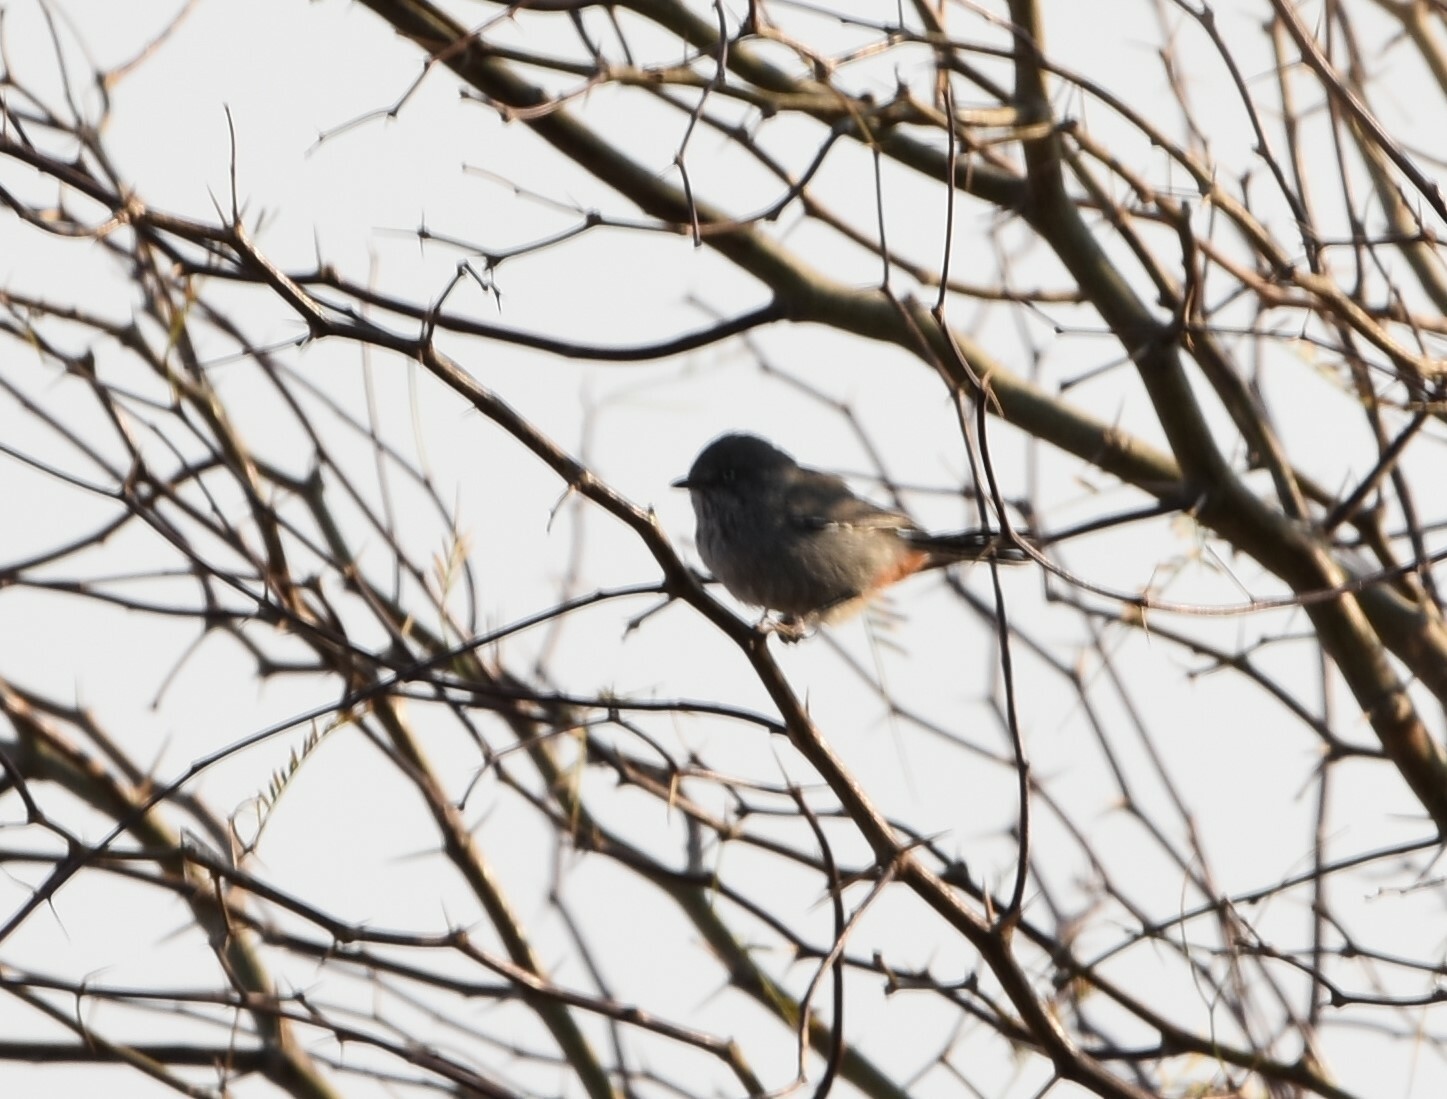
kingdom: Animalia
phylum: Chordata
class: Aves
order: Passeriformes
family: Sylviidae
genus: Curruca
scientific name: Curruca subcoerulea
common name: Chestnut-vented warbler
